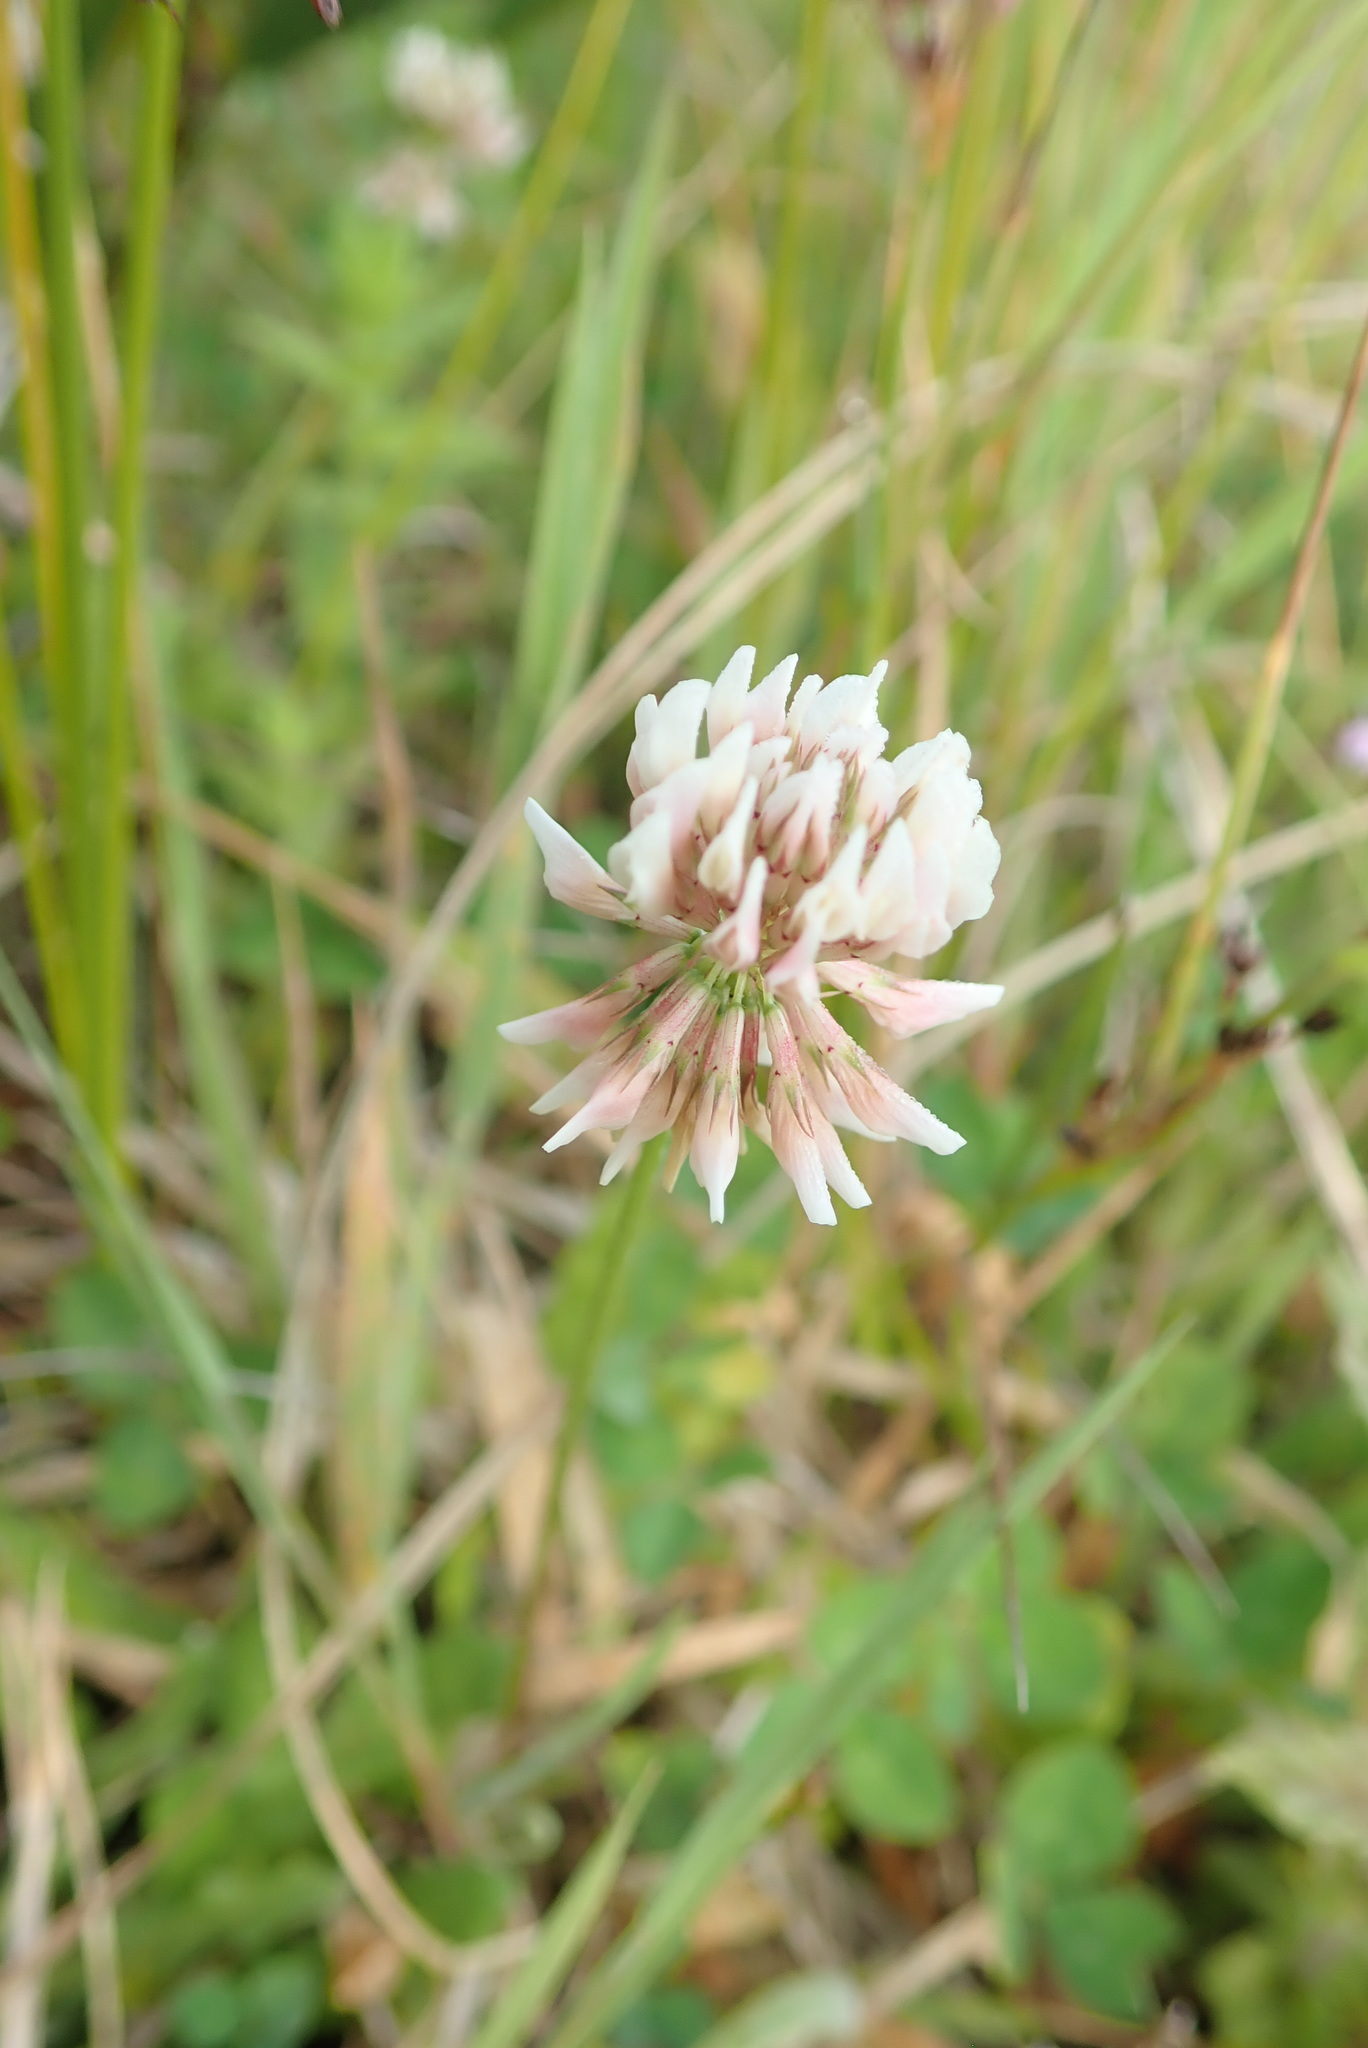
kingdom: Plantae
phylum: Tracheophyta
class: Magnoliopsida
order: Fabales
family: Fabaceae
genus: Trifolium
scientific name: Trifolium repens
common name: White clover
